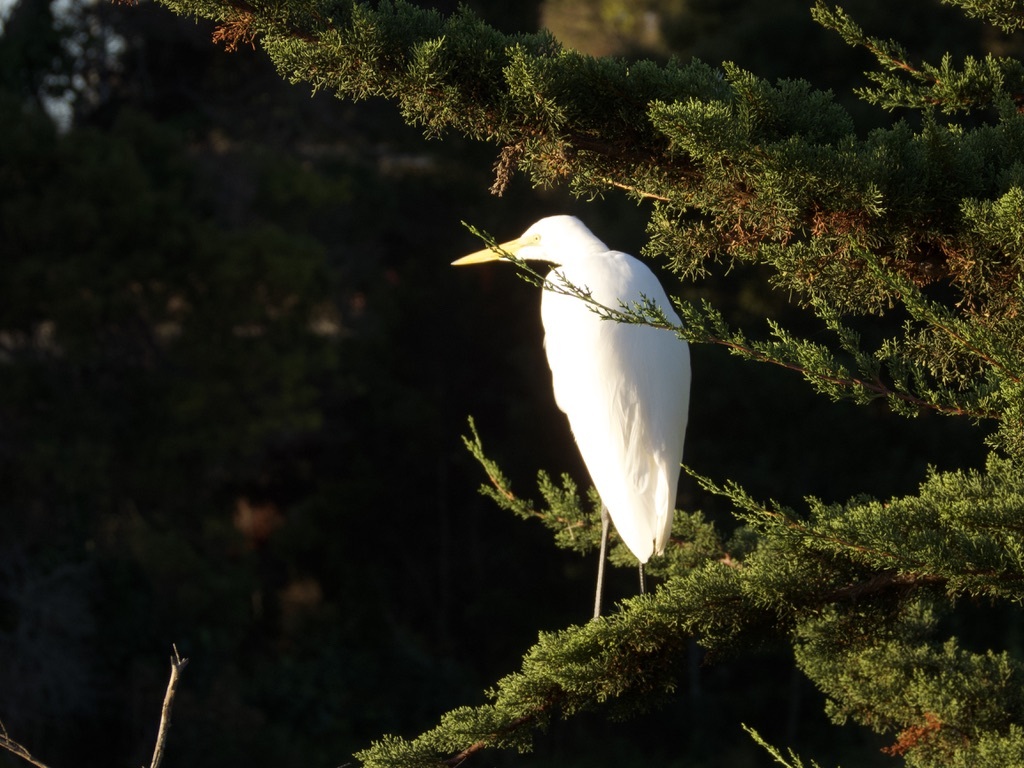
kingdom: Animalia
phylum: Chordata
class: Aves
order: Pelecaniformes
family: Ardeidae
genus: Ardea
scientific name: Ardea alba
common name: Great egret
